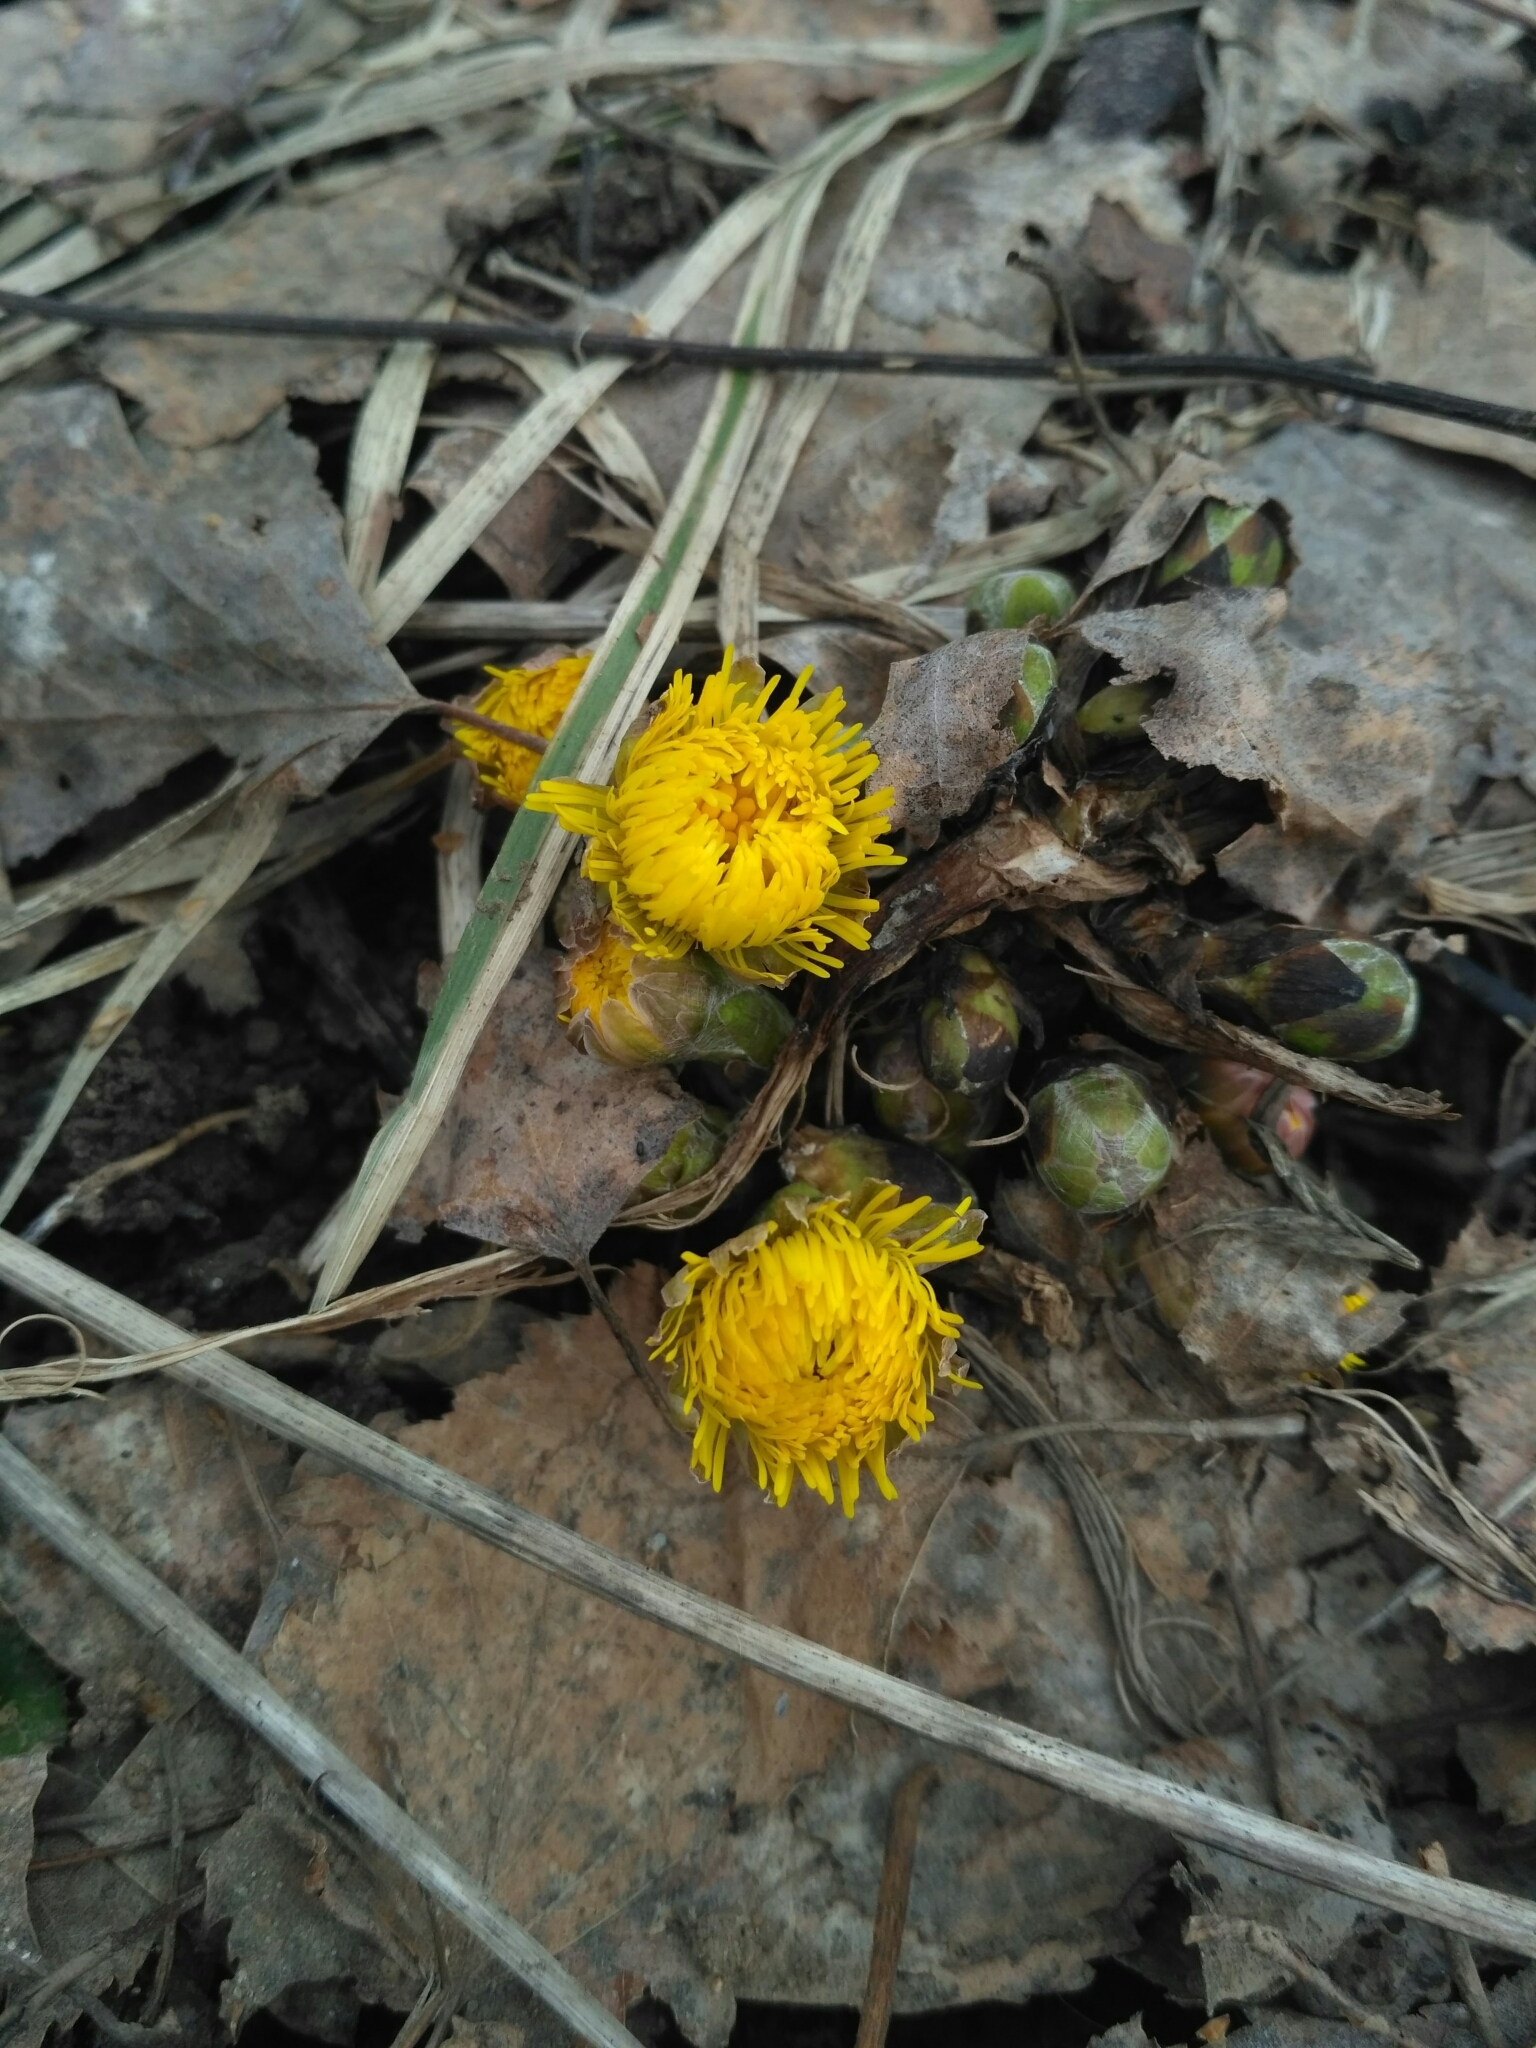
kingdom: Plantae
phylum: Tracheophyta
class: Magnoliopsida
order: Asterales
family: Asteraceae
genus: Tussilago
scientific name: Tussilago farfara
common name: Coltsfoot
